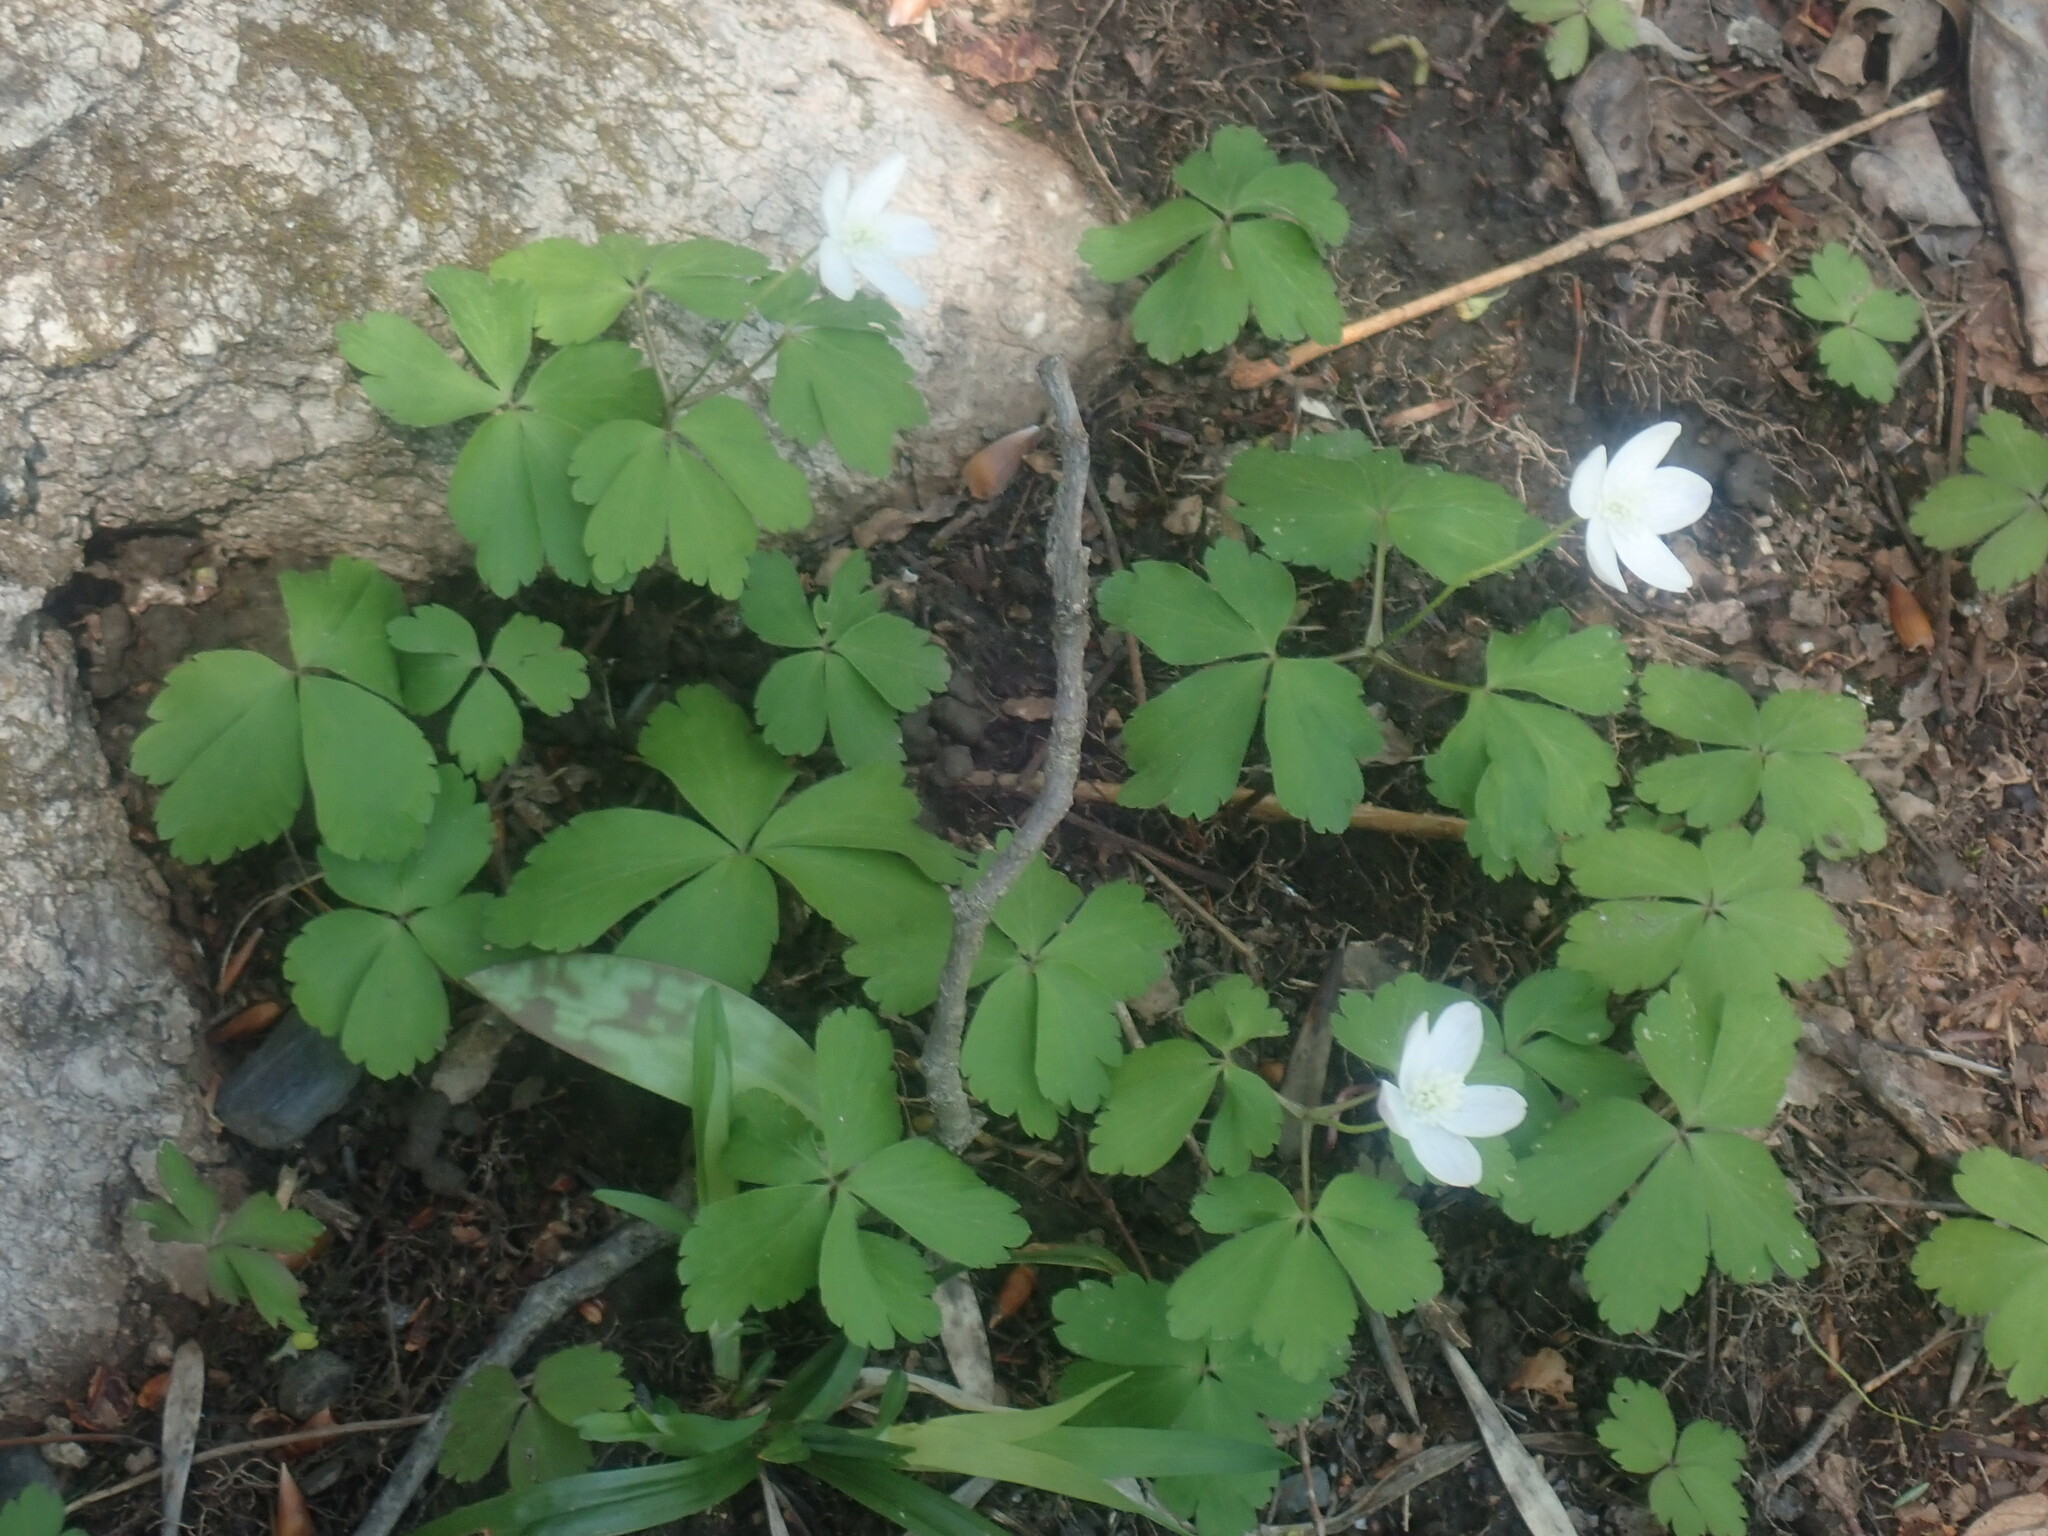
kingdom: Plantae
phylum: Tracheophyta
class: Magnoliopsida
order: Ranunculales
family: Ranunculaceae
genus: Anemone
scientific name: Anemone quinquefolia
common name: Wood anemone
